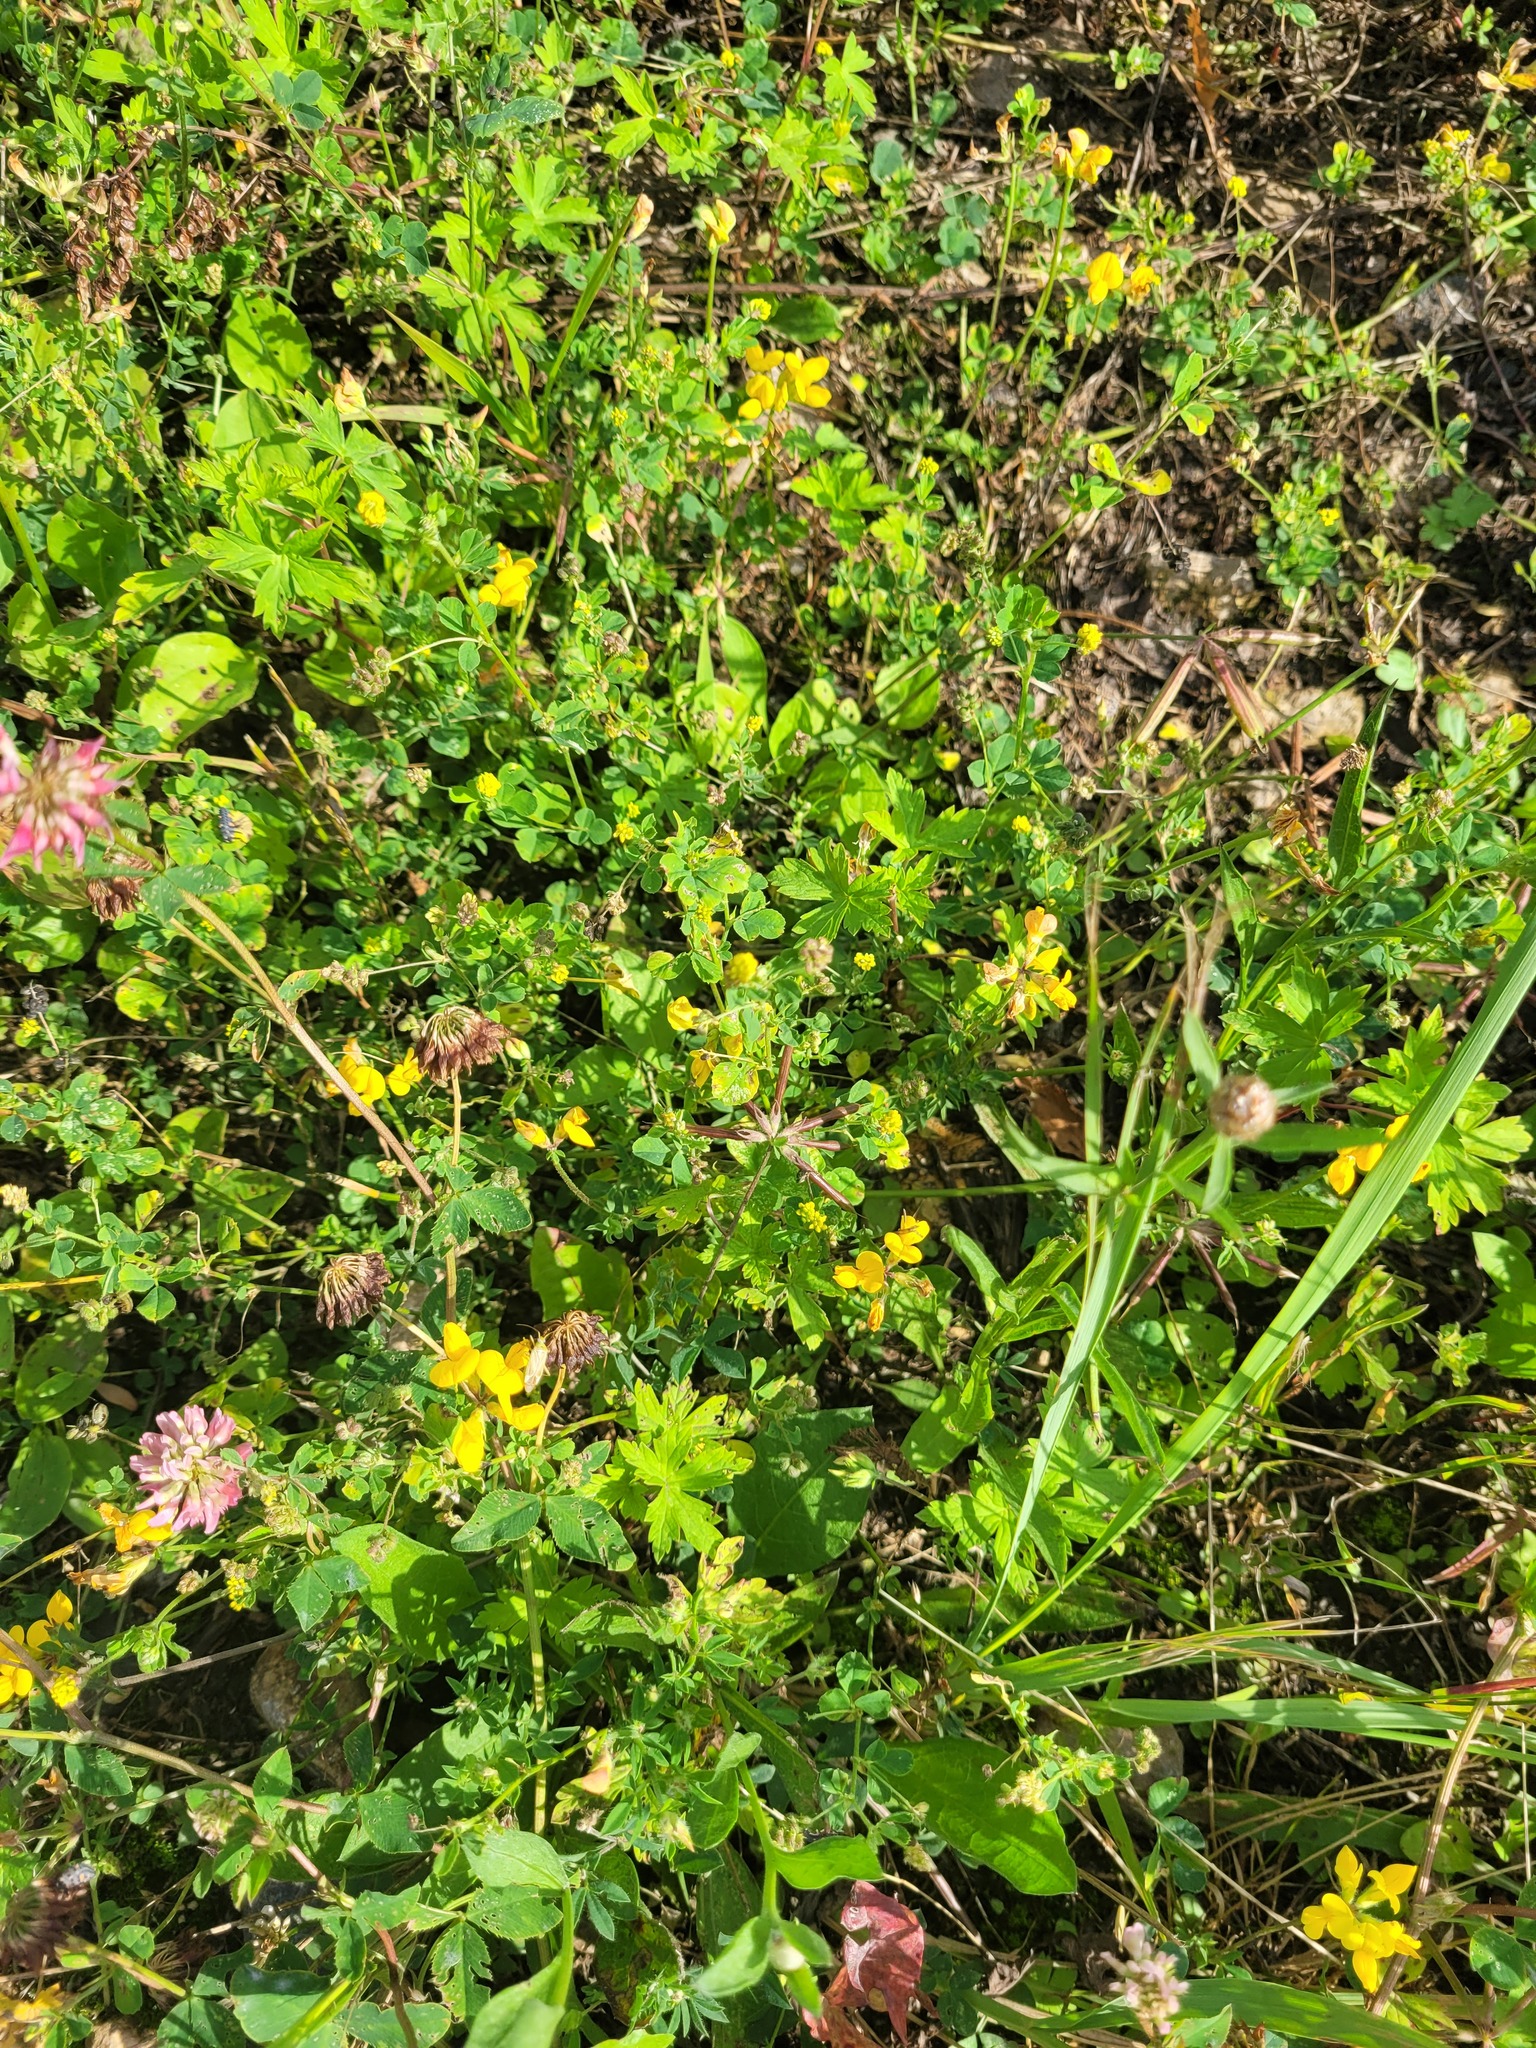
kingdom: Plantae
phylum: Tracheophyta
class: Magnoliopsida
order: Fabales
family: Fabaceae
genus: Lotus
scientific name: Lotus corniculatus
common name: Common bird's-foot-trefoil
